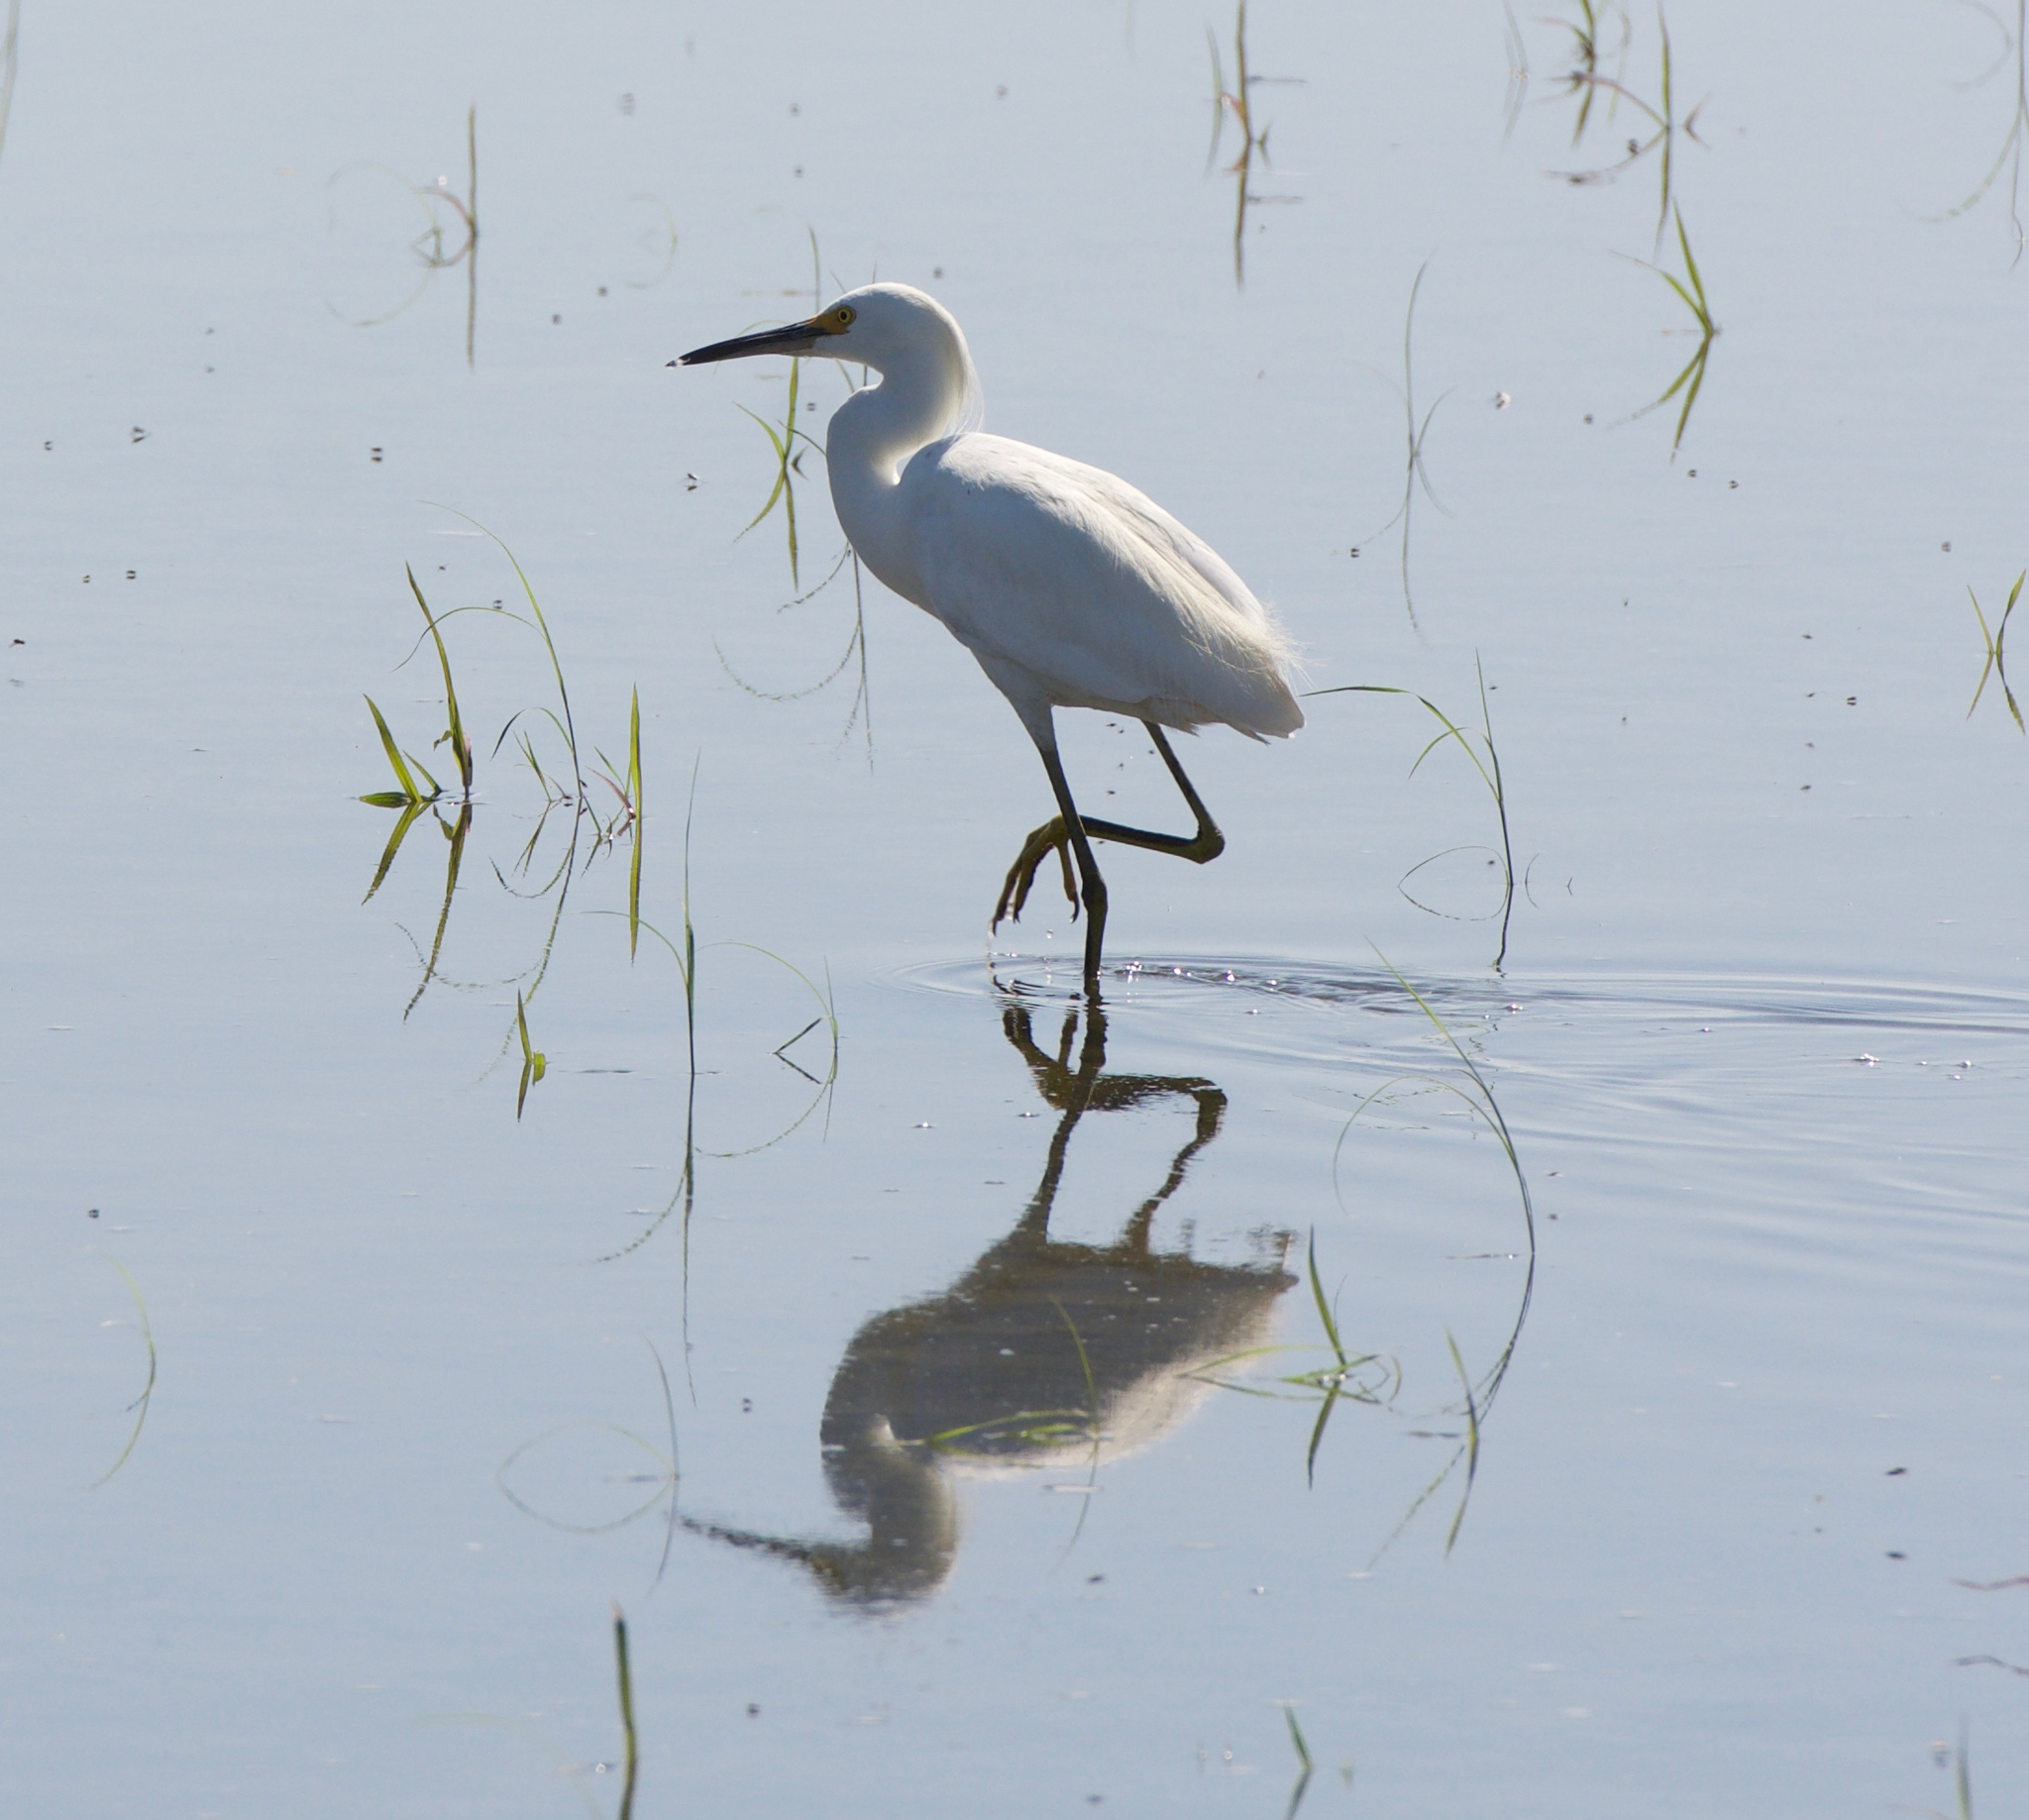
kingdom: Animalia
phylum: Chordata
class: Aves
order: Pelecaniformes
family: Ardeidae
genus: Egretta
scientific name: Egretta thula
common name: Snowy egret
